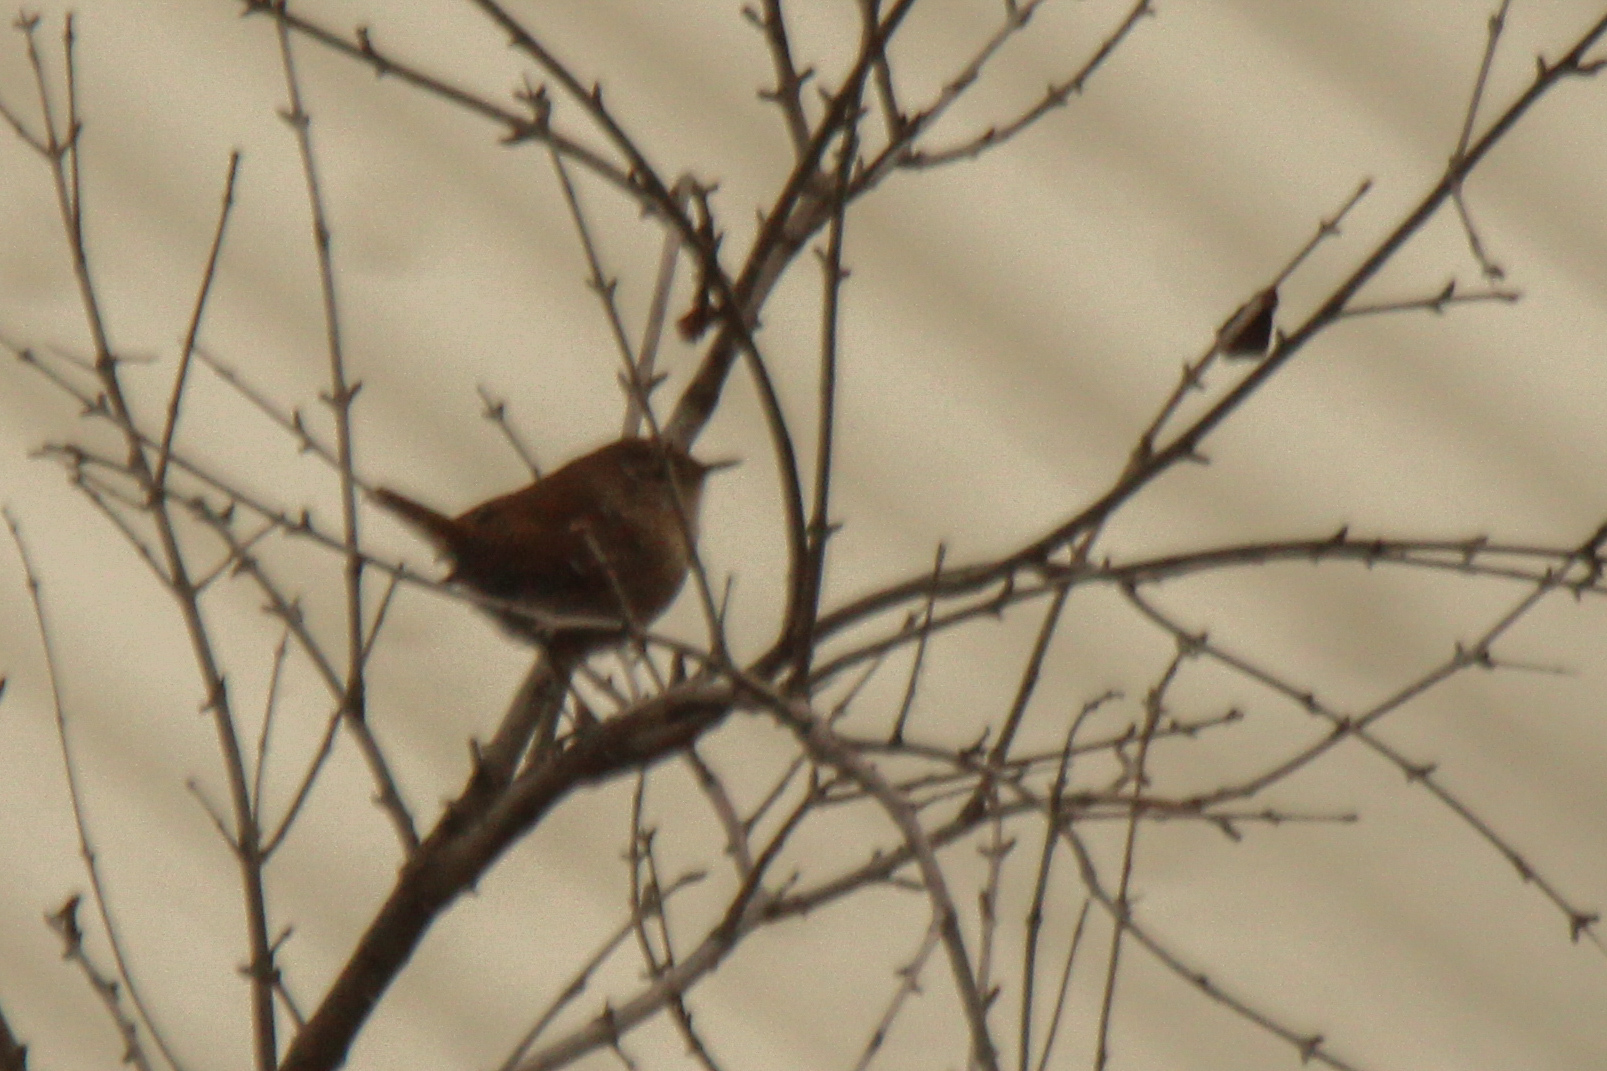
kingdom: Animalia
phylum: Chordata
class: Aves
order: Passeriformes
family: Troglodytidae
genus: Troglodytes
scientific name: Troglodytes troglodytes
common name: Eurasian wren
